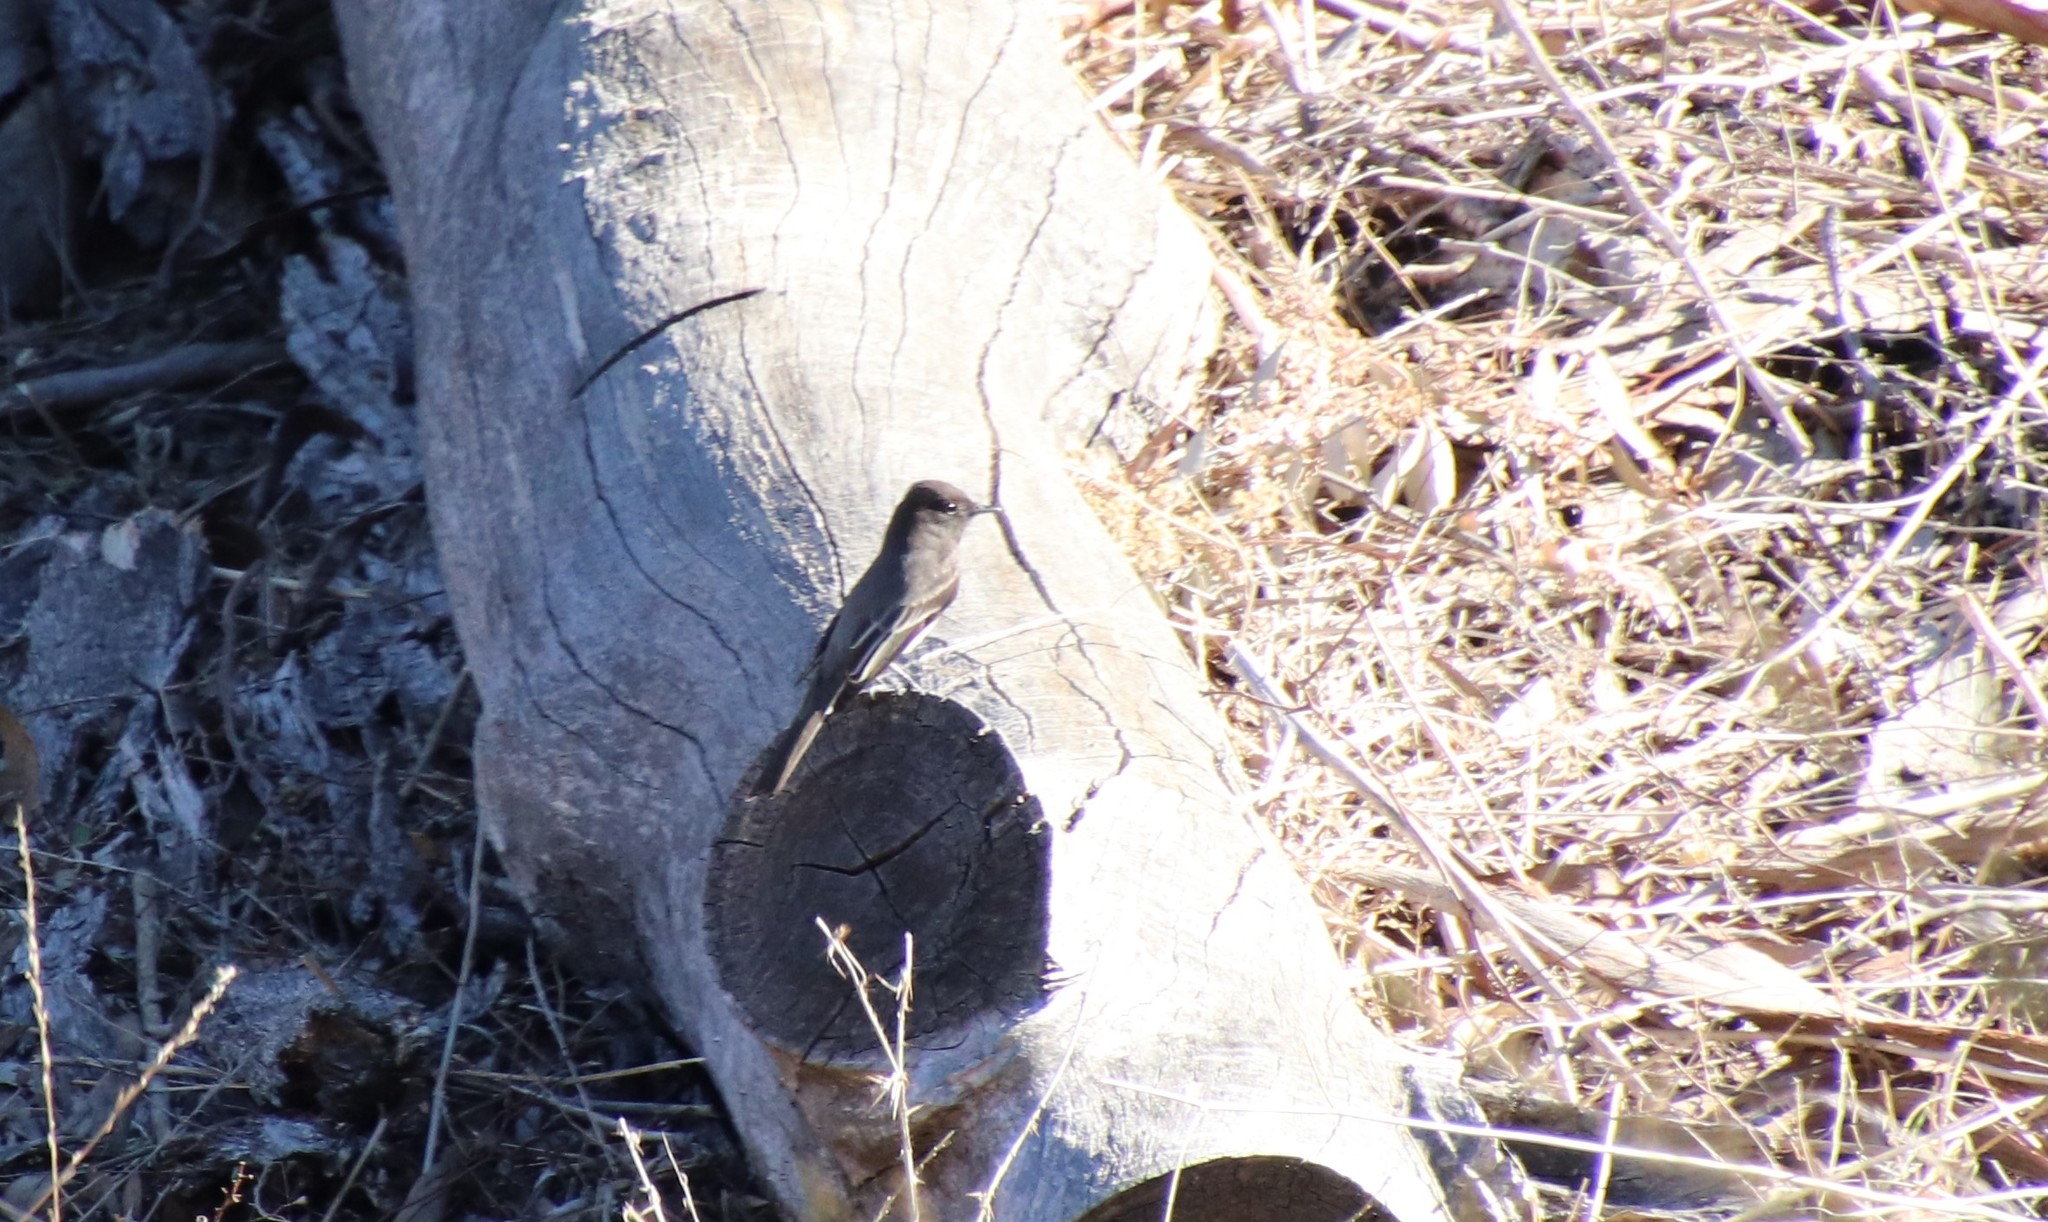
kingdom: Animalia
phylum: Chordata
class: Aves
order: Passeriformes
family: Tyrannidae
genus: Sayornis
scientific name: Sayornis nigricans
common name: Black phoebe
